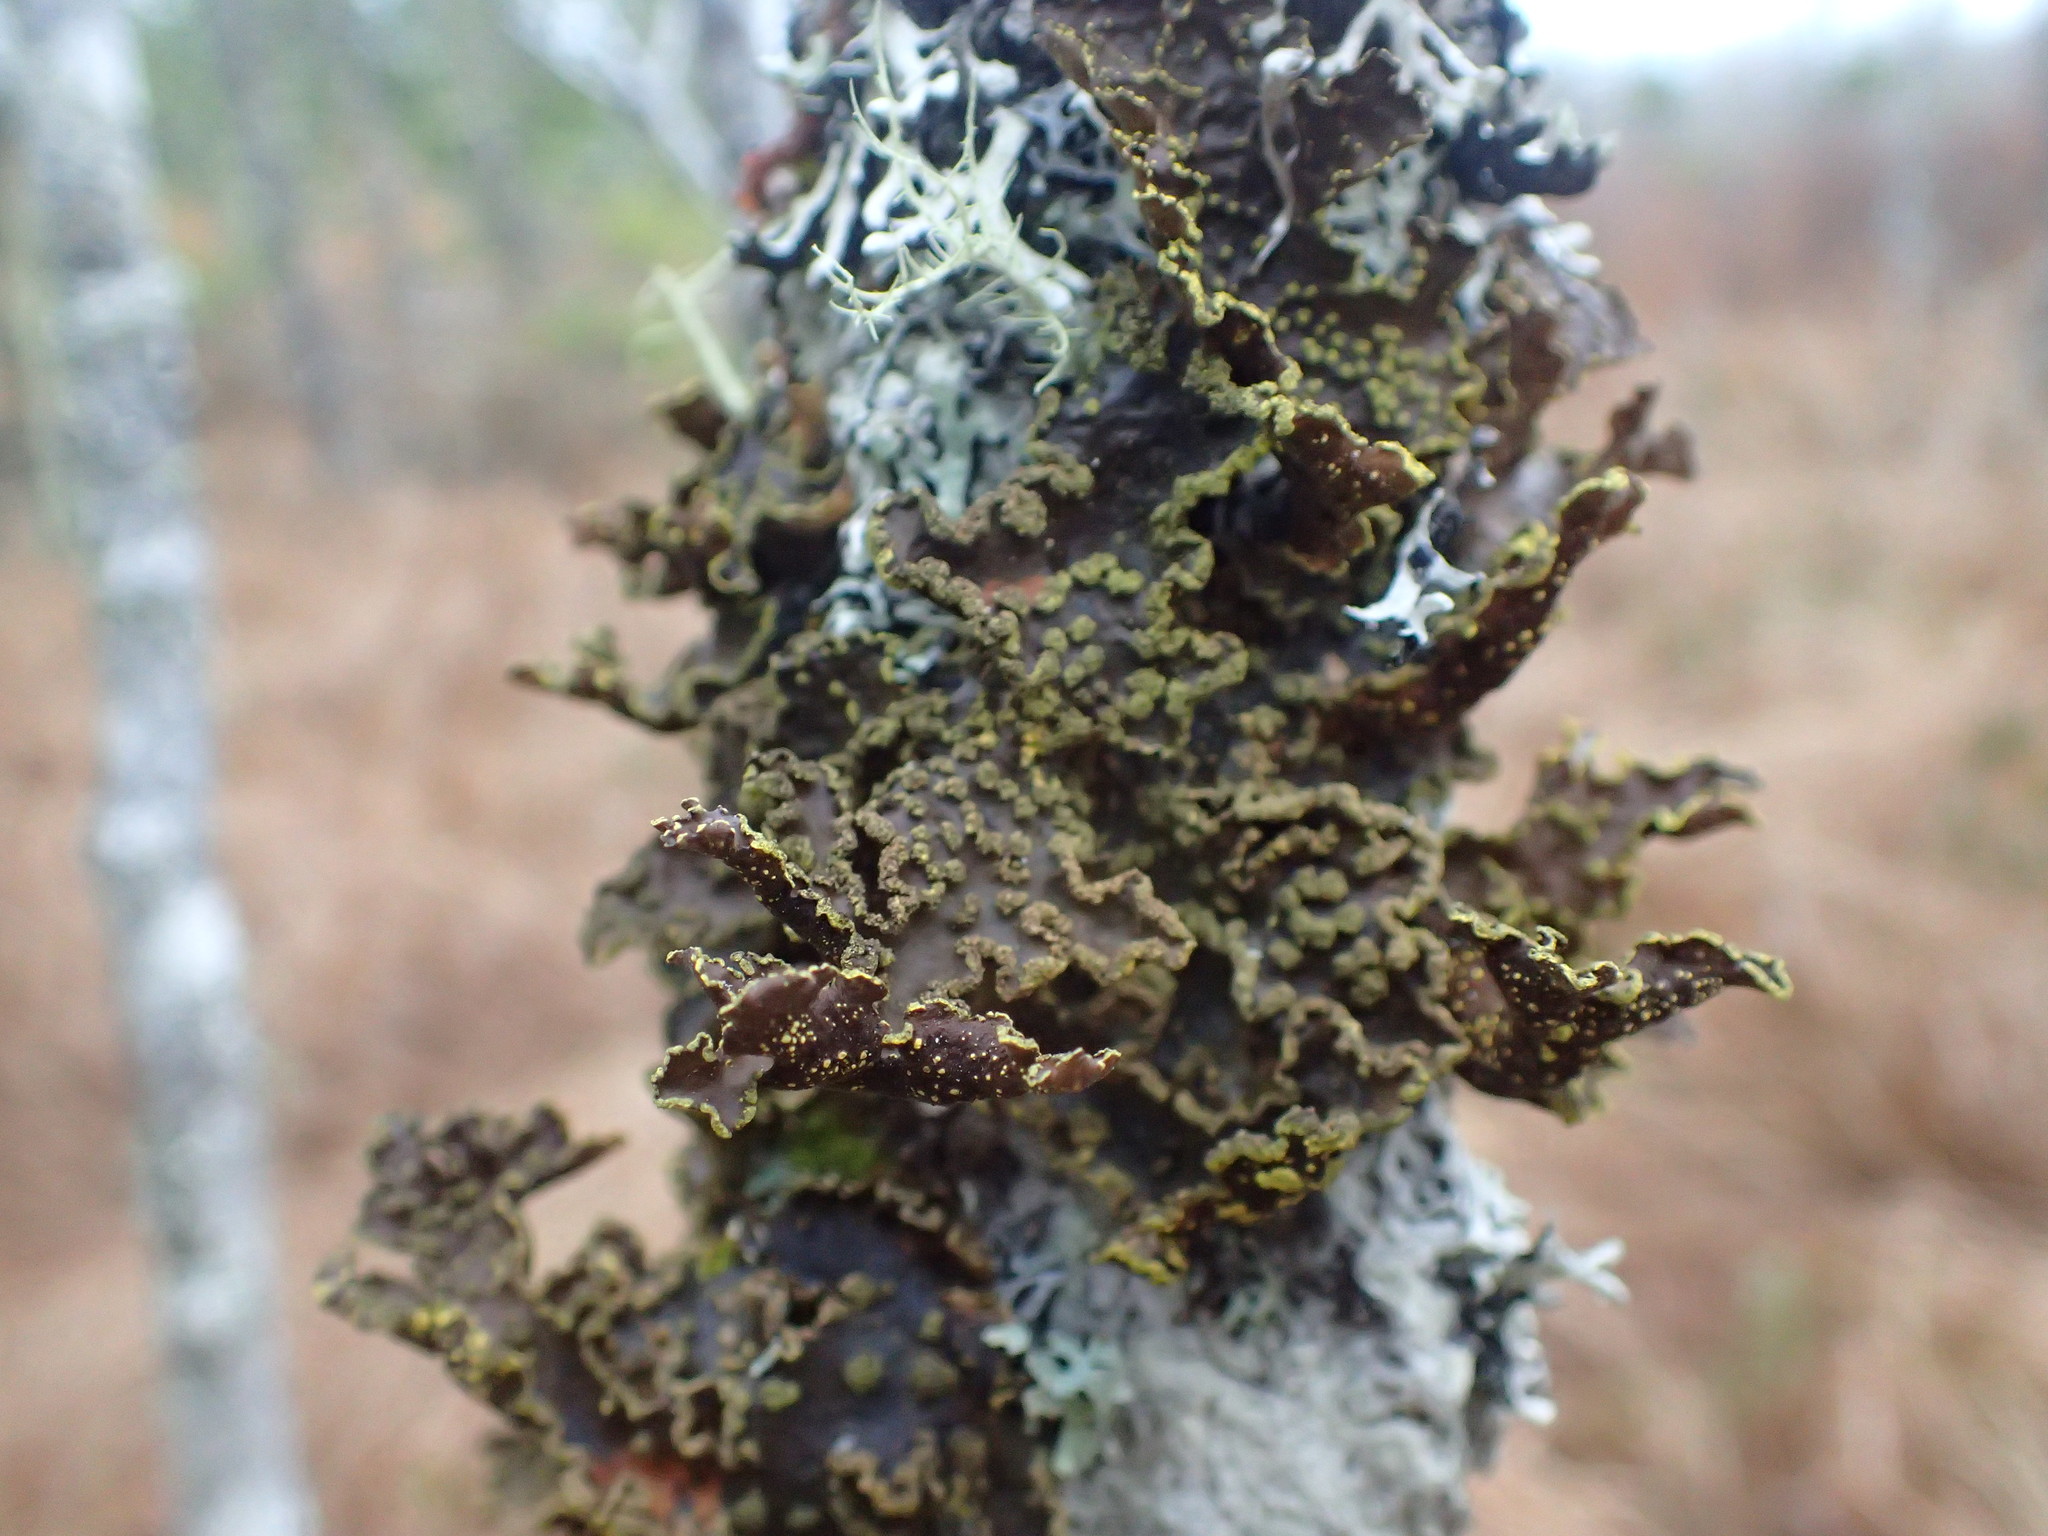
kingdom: Fungi
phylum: Ascomycota
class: Lecanoromycetes
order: Peltigerales
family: Lobariaceae
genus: Pseudocyphellaria
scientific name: Pseudocyphellaria holarctica
